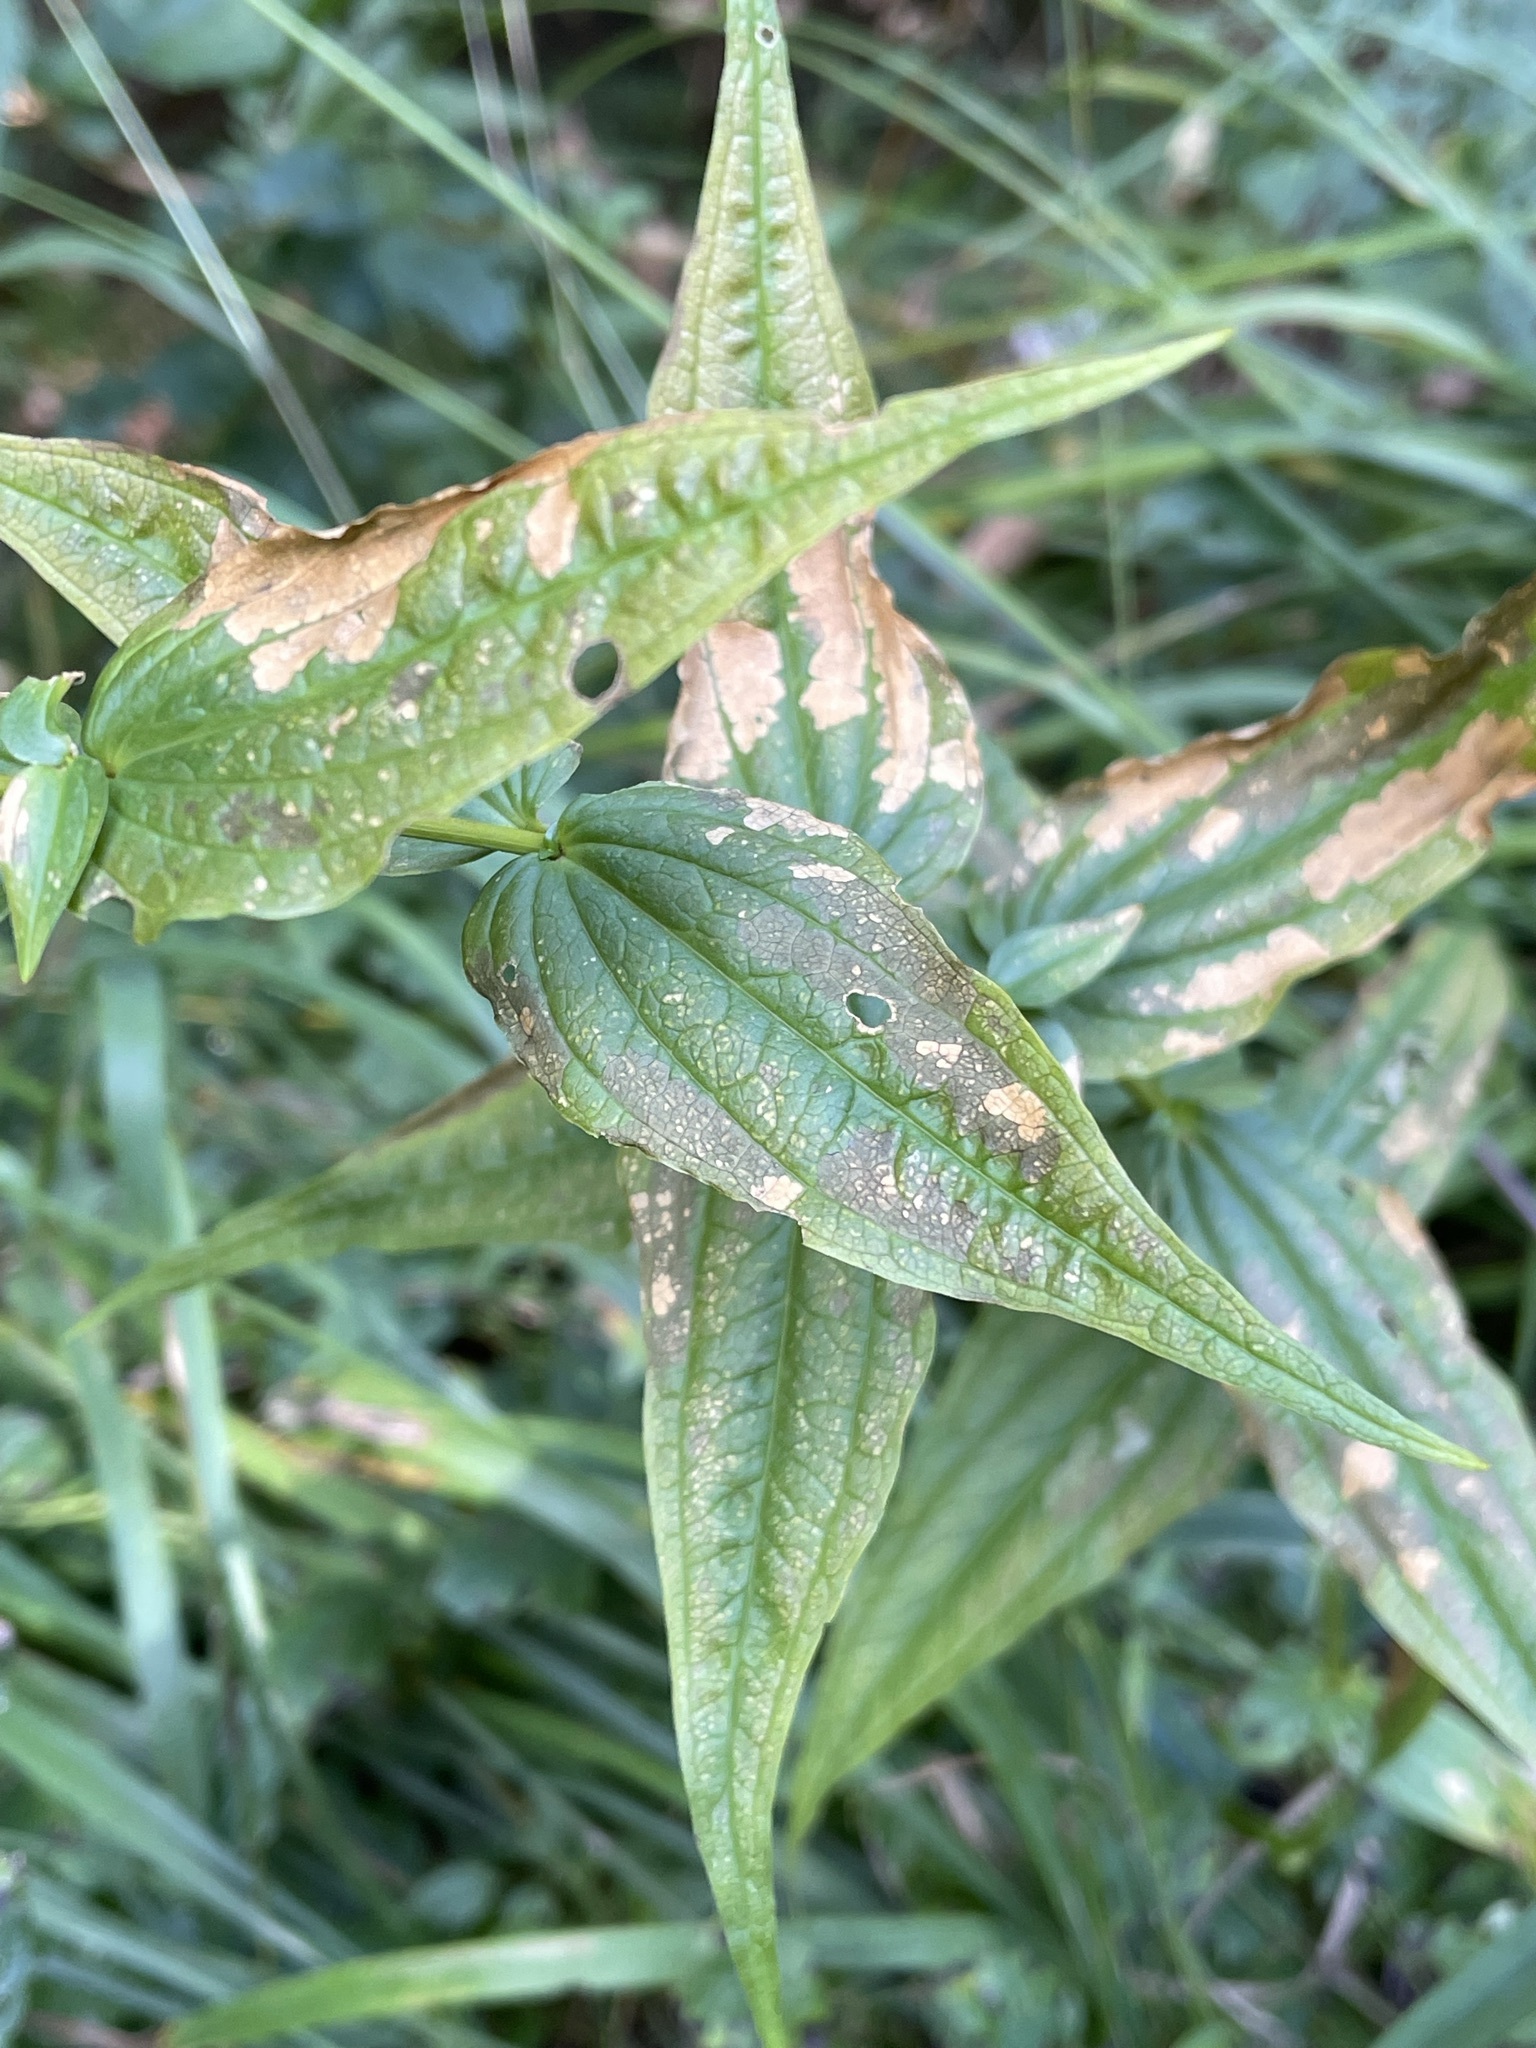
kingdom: Plantae
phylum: Tracheophyta
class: Magnoliopsida
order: Gentianales
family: Gentianaceae
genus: Gentiana
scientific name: Gentiana asclepiadea
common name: Willow gentian
